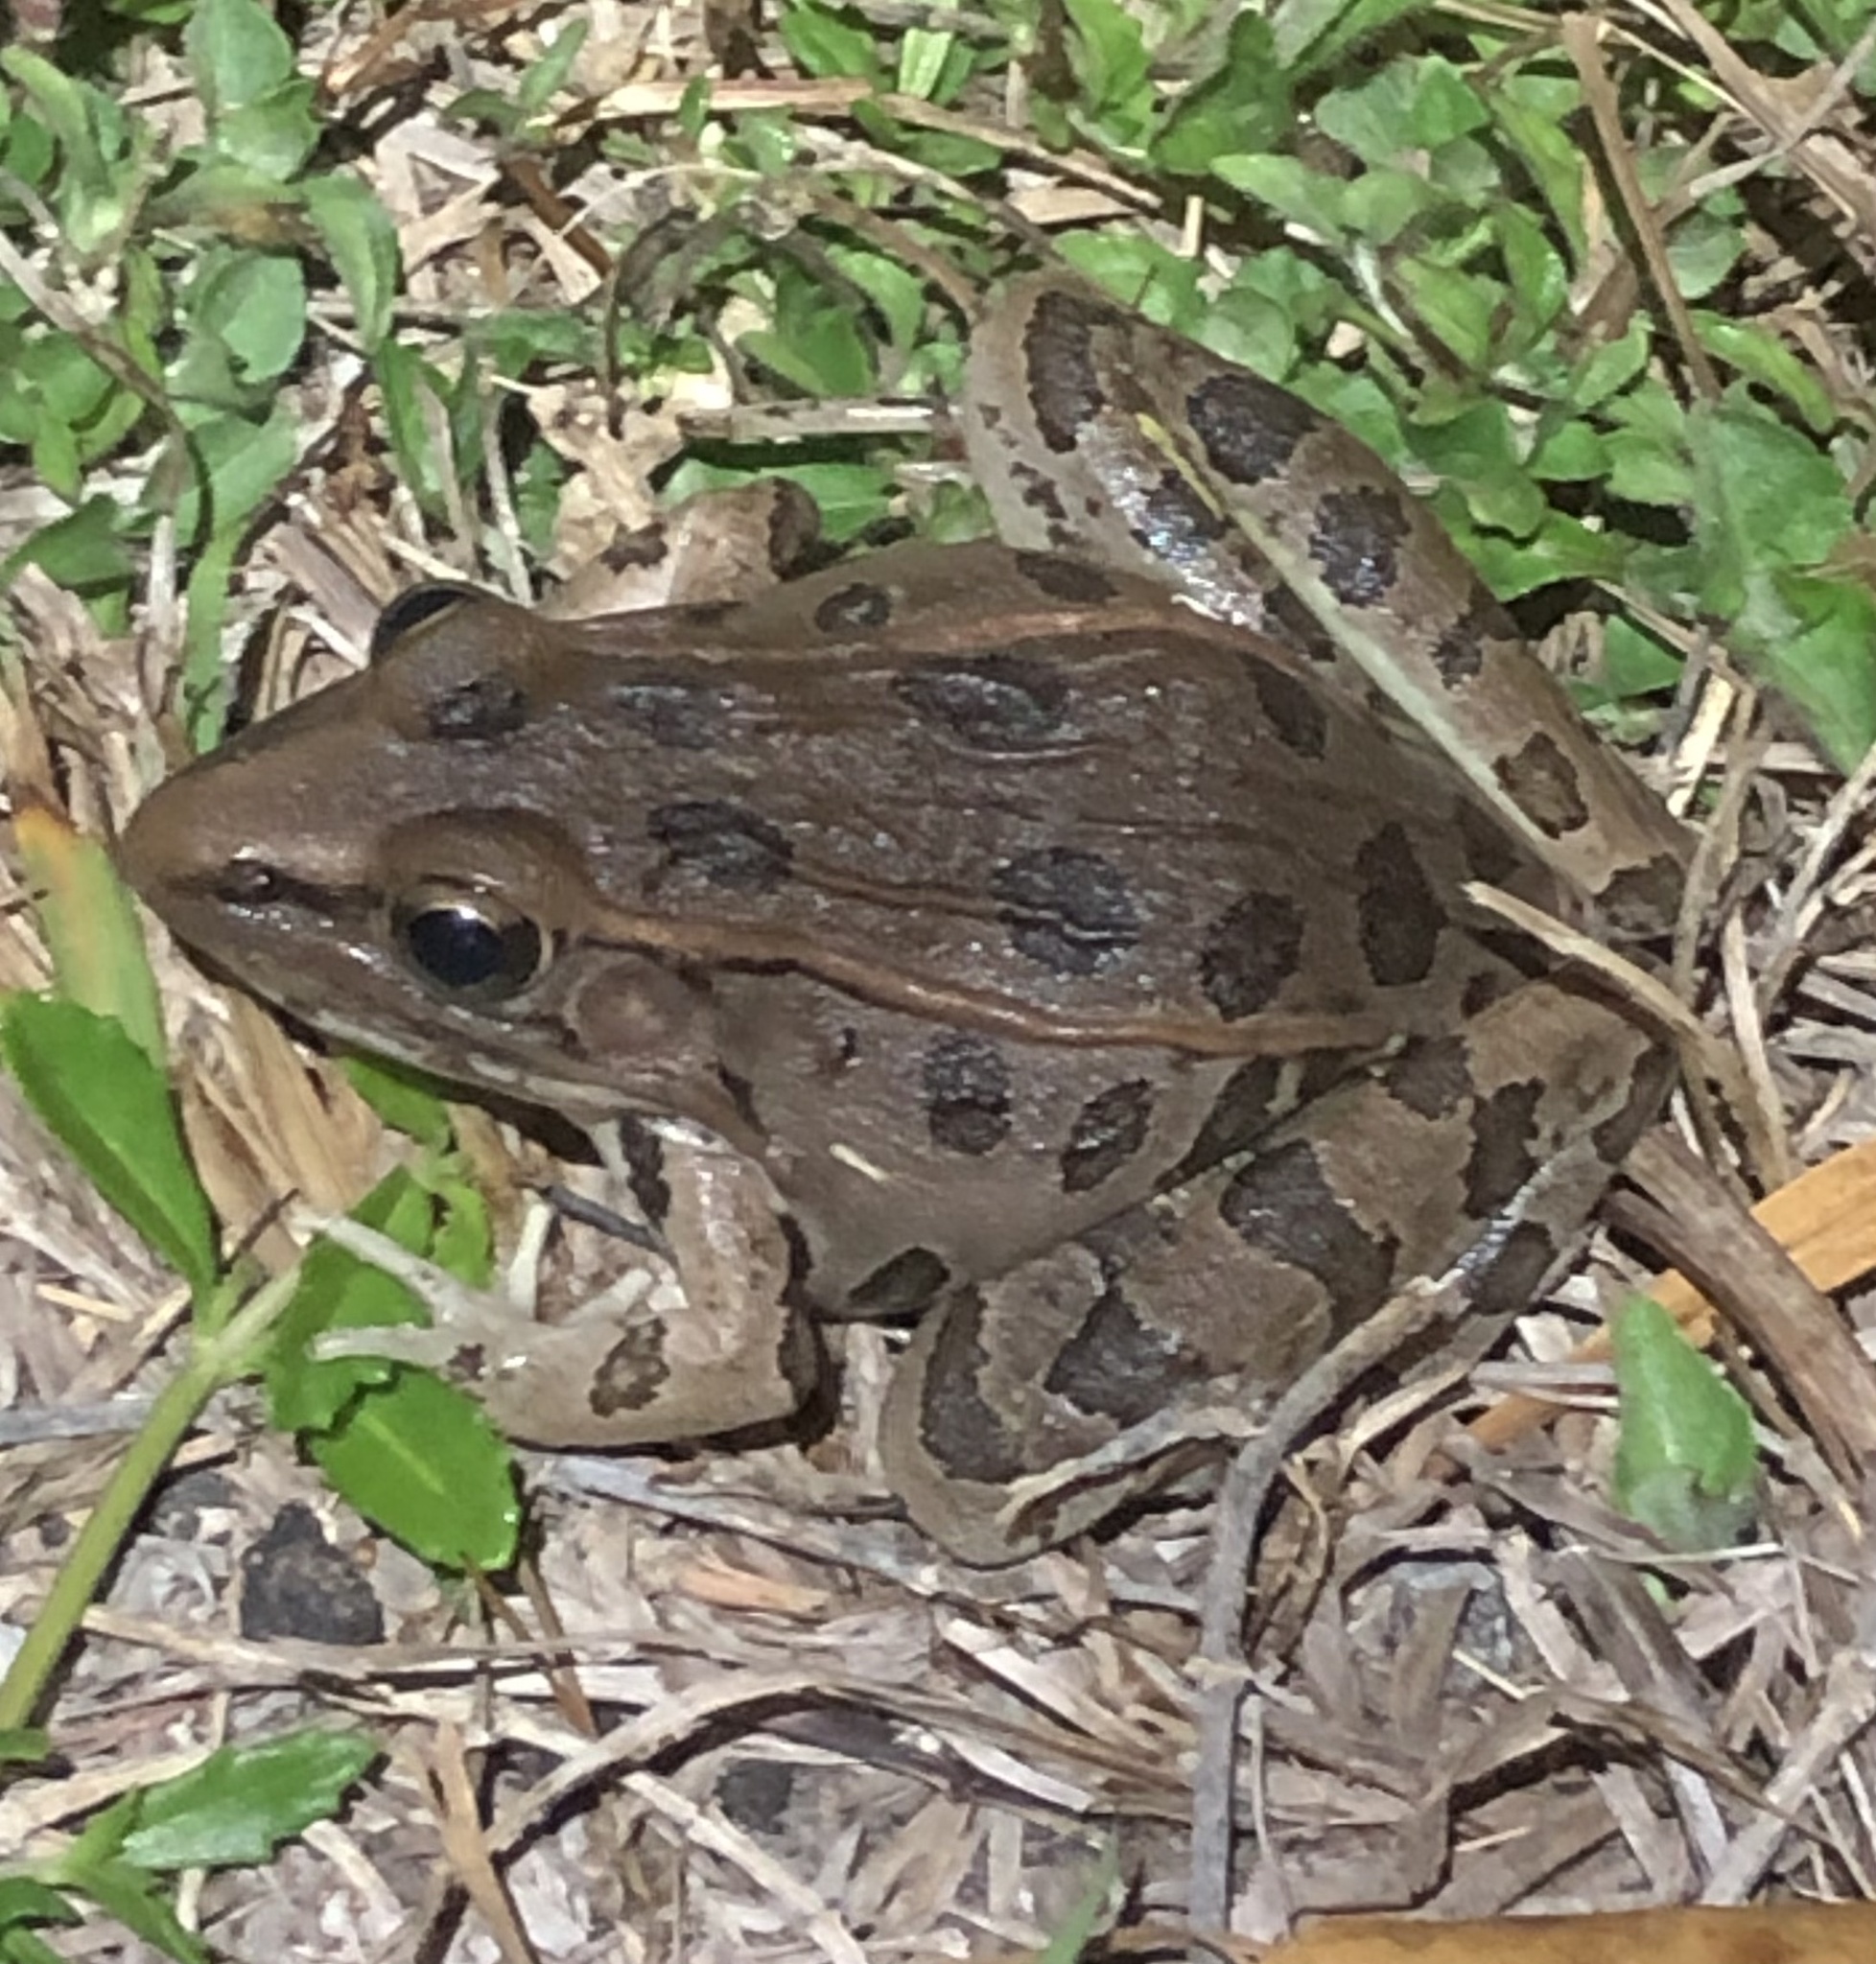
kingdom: Animalia
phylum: Chordata
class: Amphibia
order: Anura
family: Ranidae
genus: Lithobates
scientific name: Lithobates sphenocephalus
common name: Southern leopard frog
